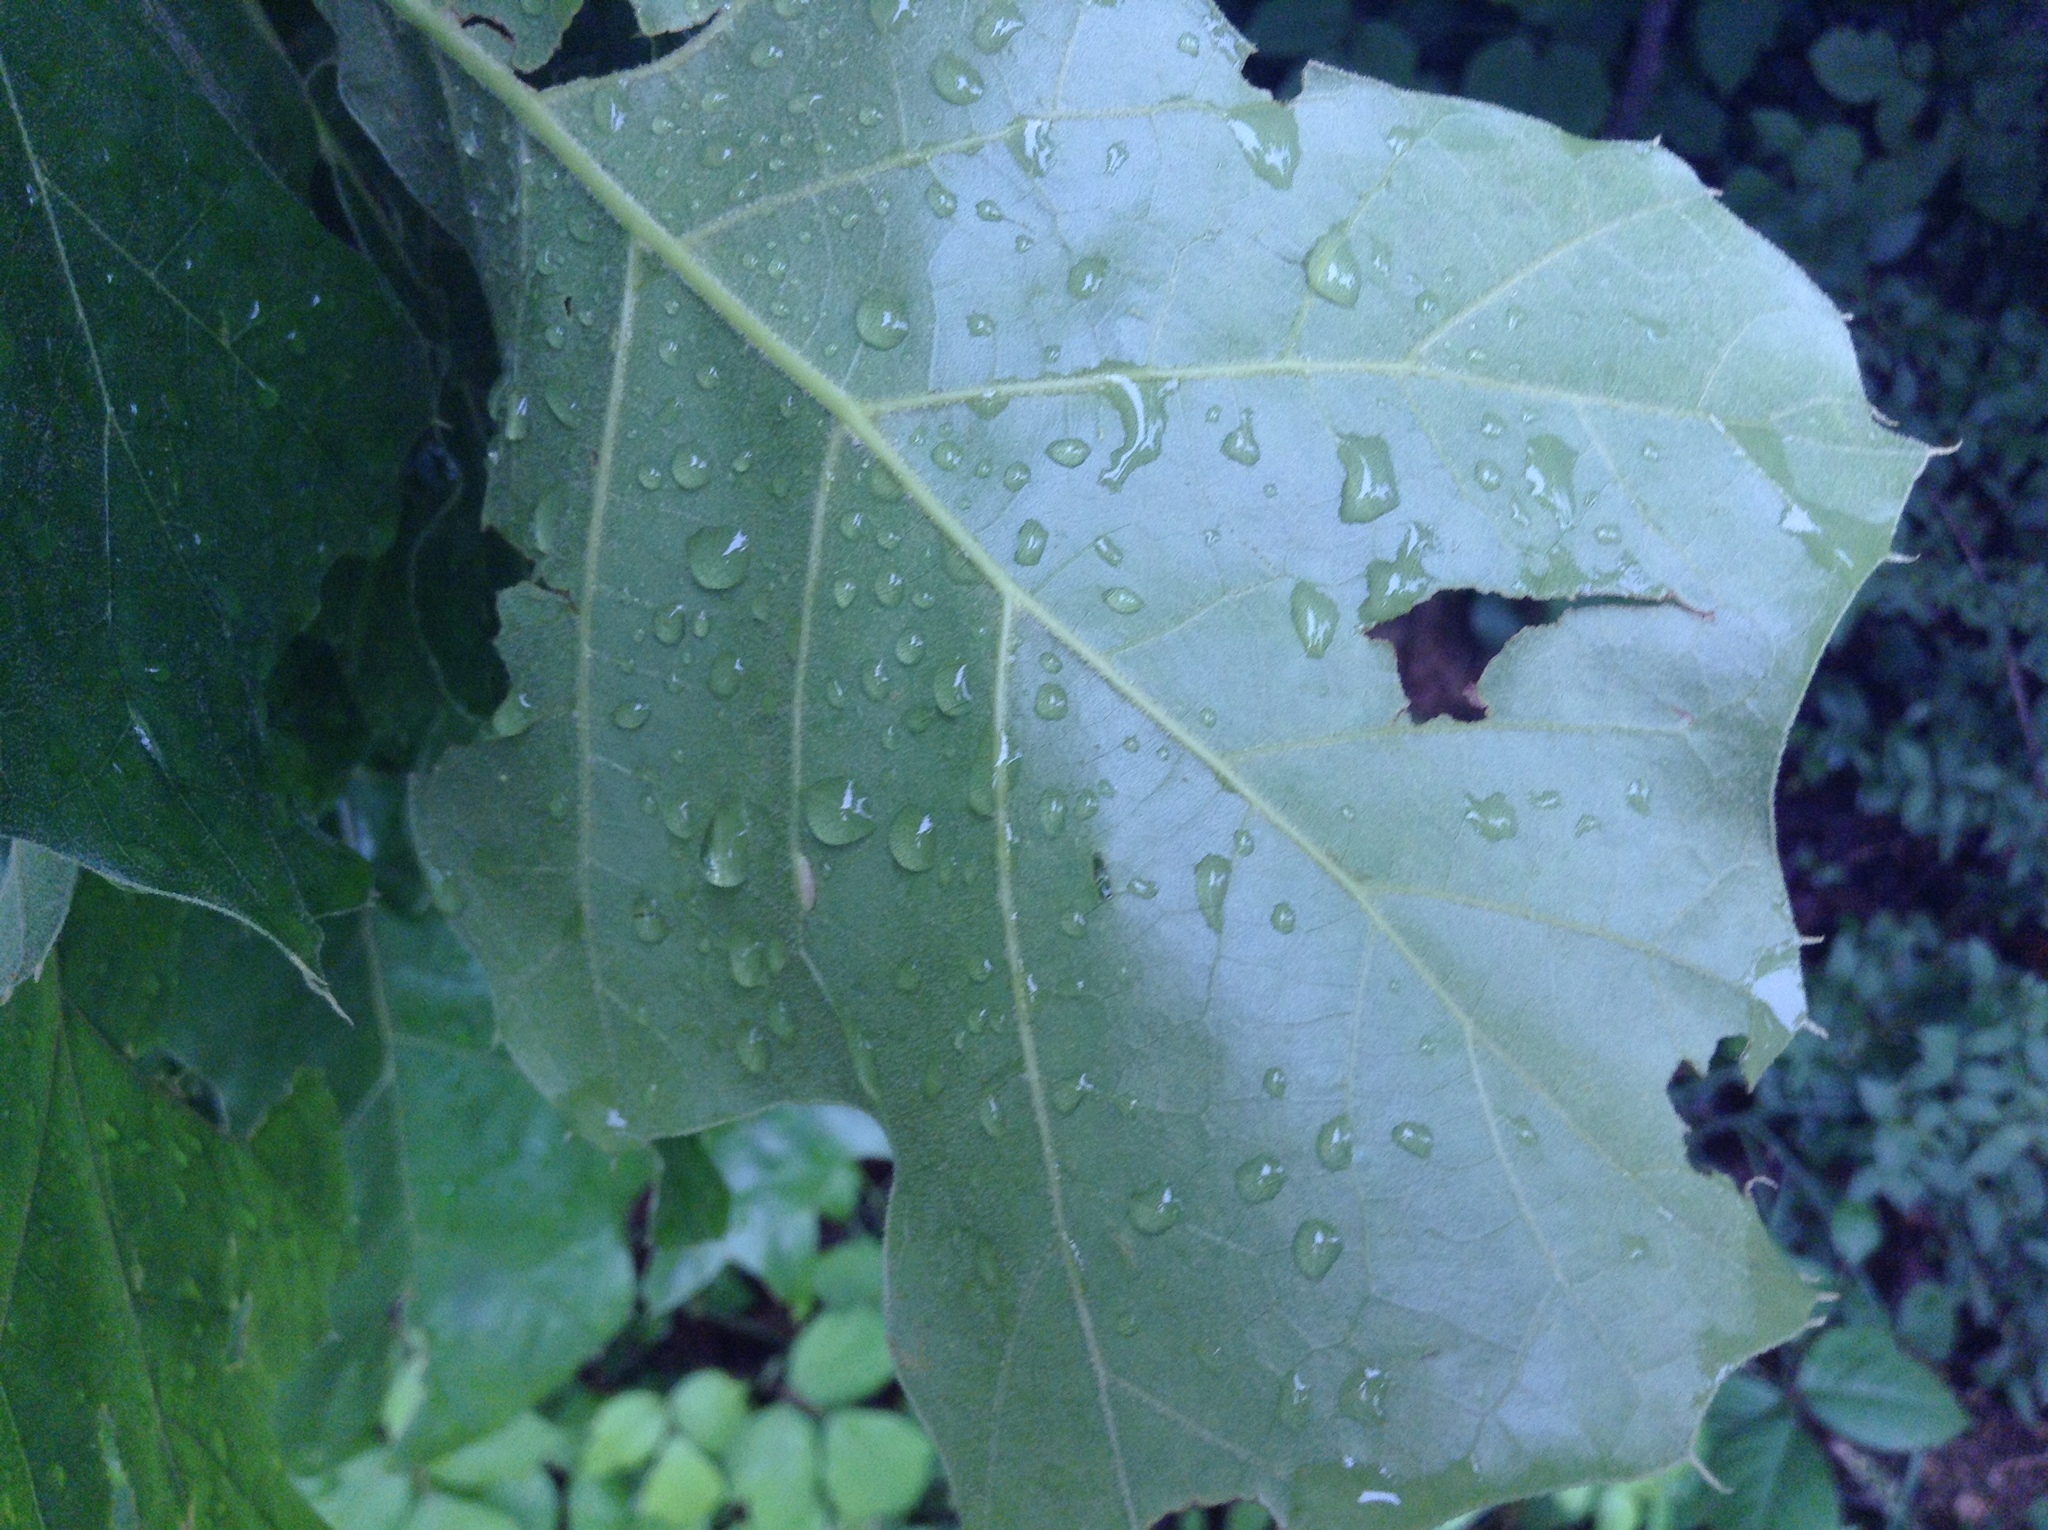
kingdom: Plantae
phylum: Tracheophyta
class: Magnoliopsida
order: Fagales
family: Fagaceae
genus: Quercus
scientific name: Quercus velutina
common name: Black oak
